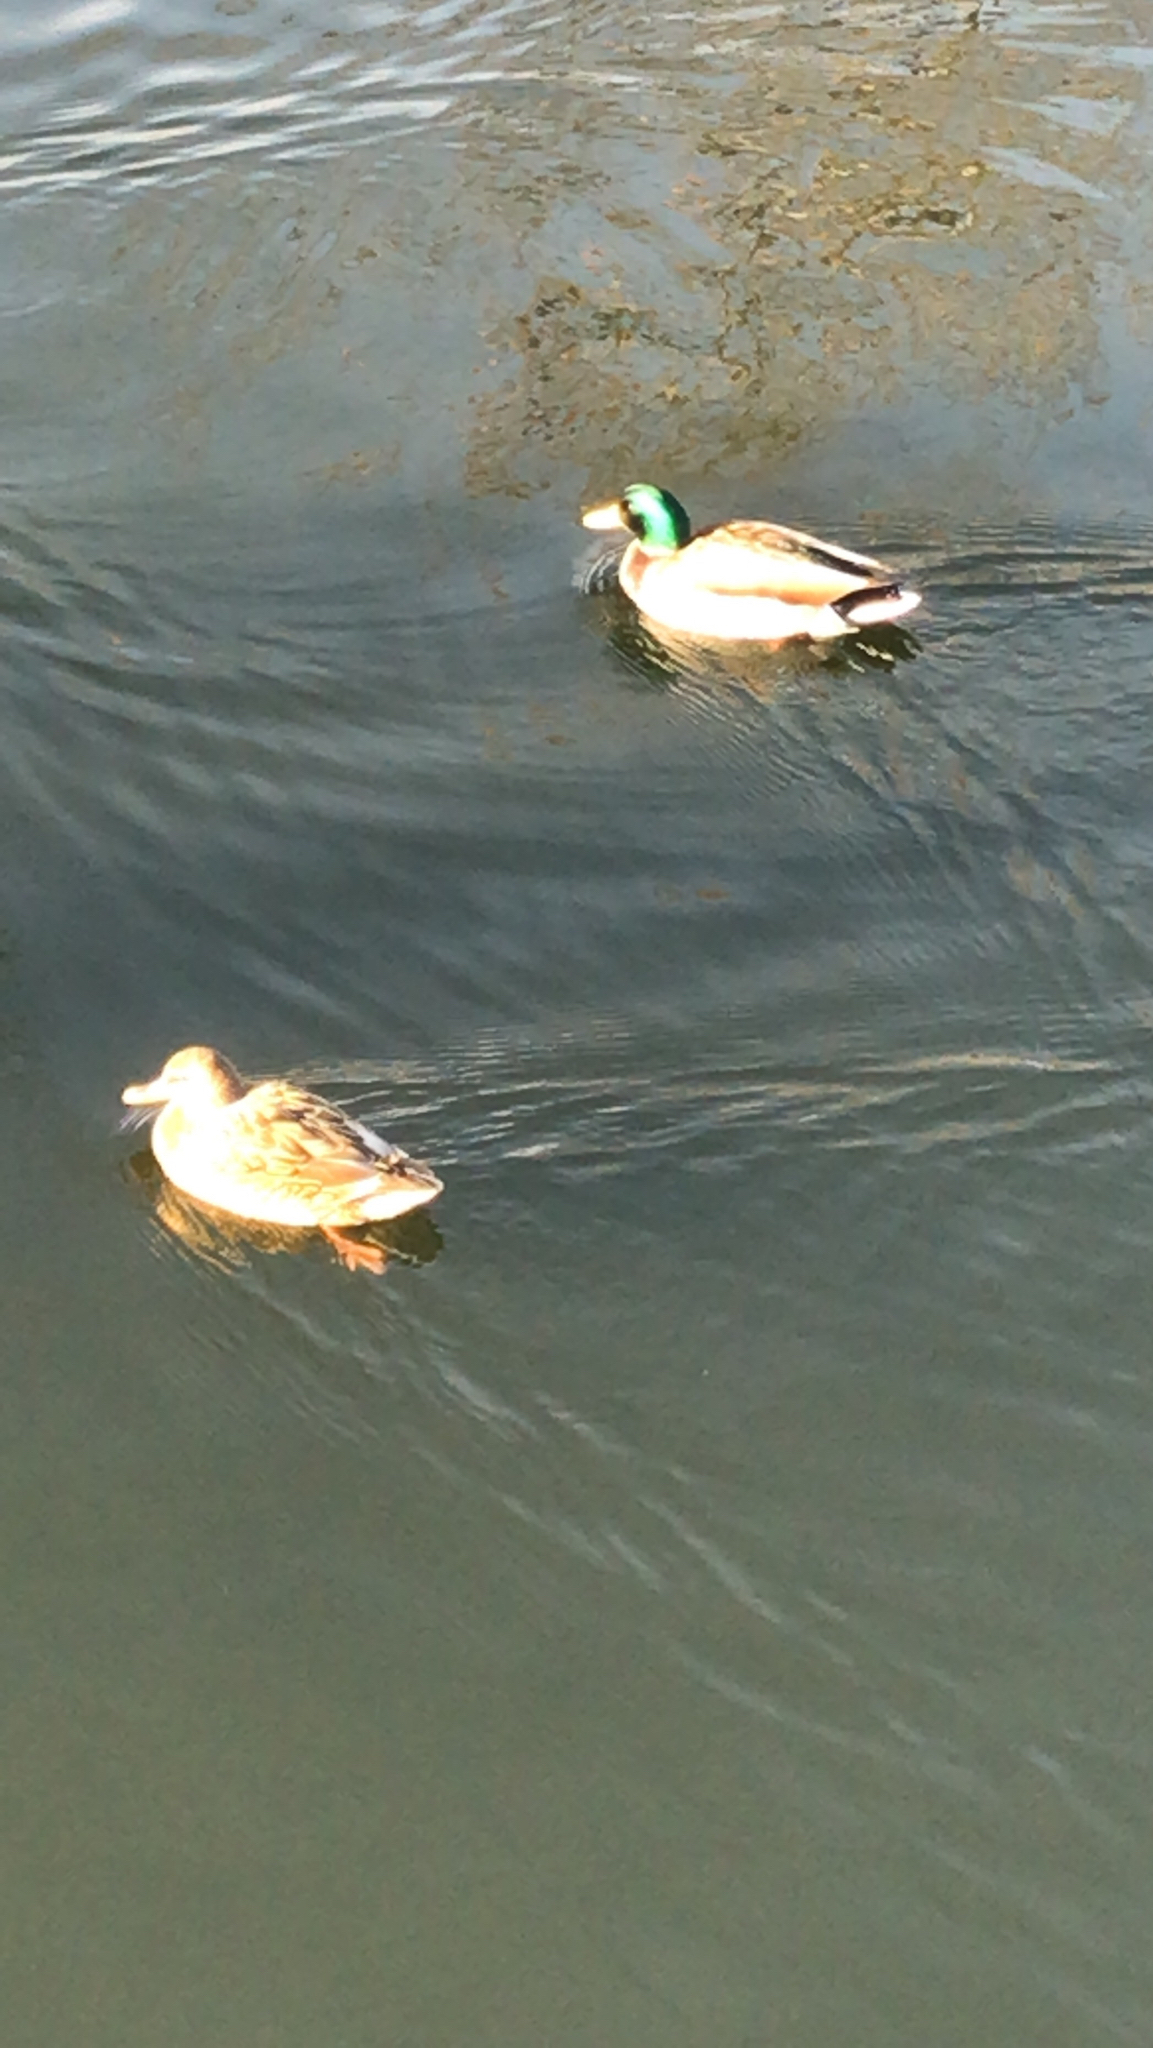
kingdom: Animalia
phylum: Chordata
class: Aves
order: Anseriformes
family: Anatidae
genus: Anas
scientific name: Anas platyrhynchos
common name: Mallard
